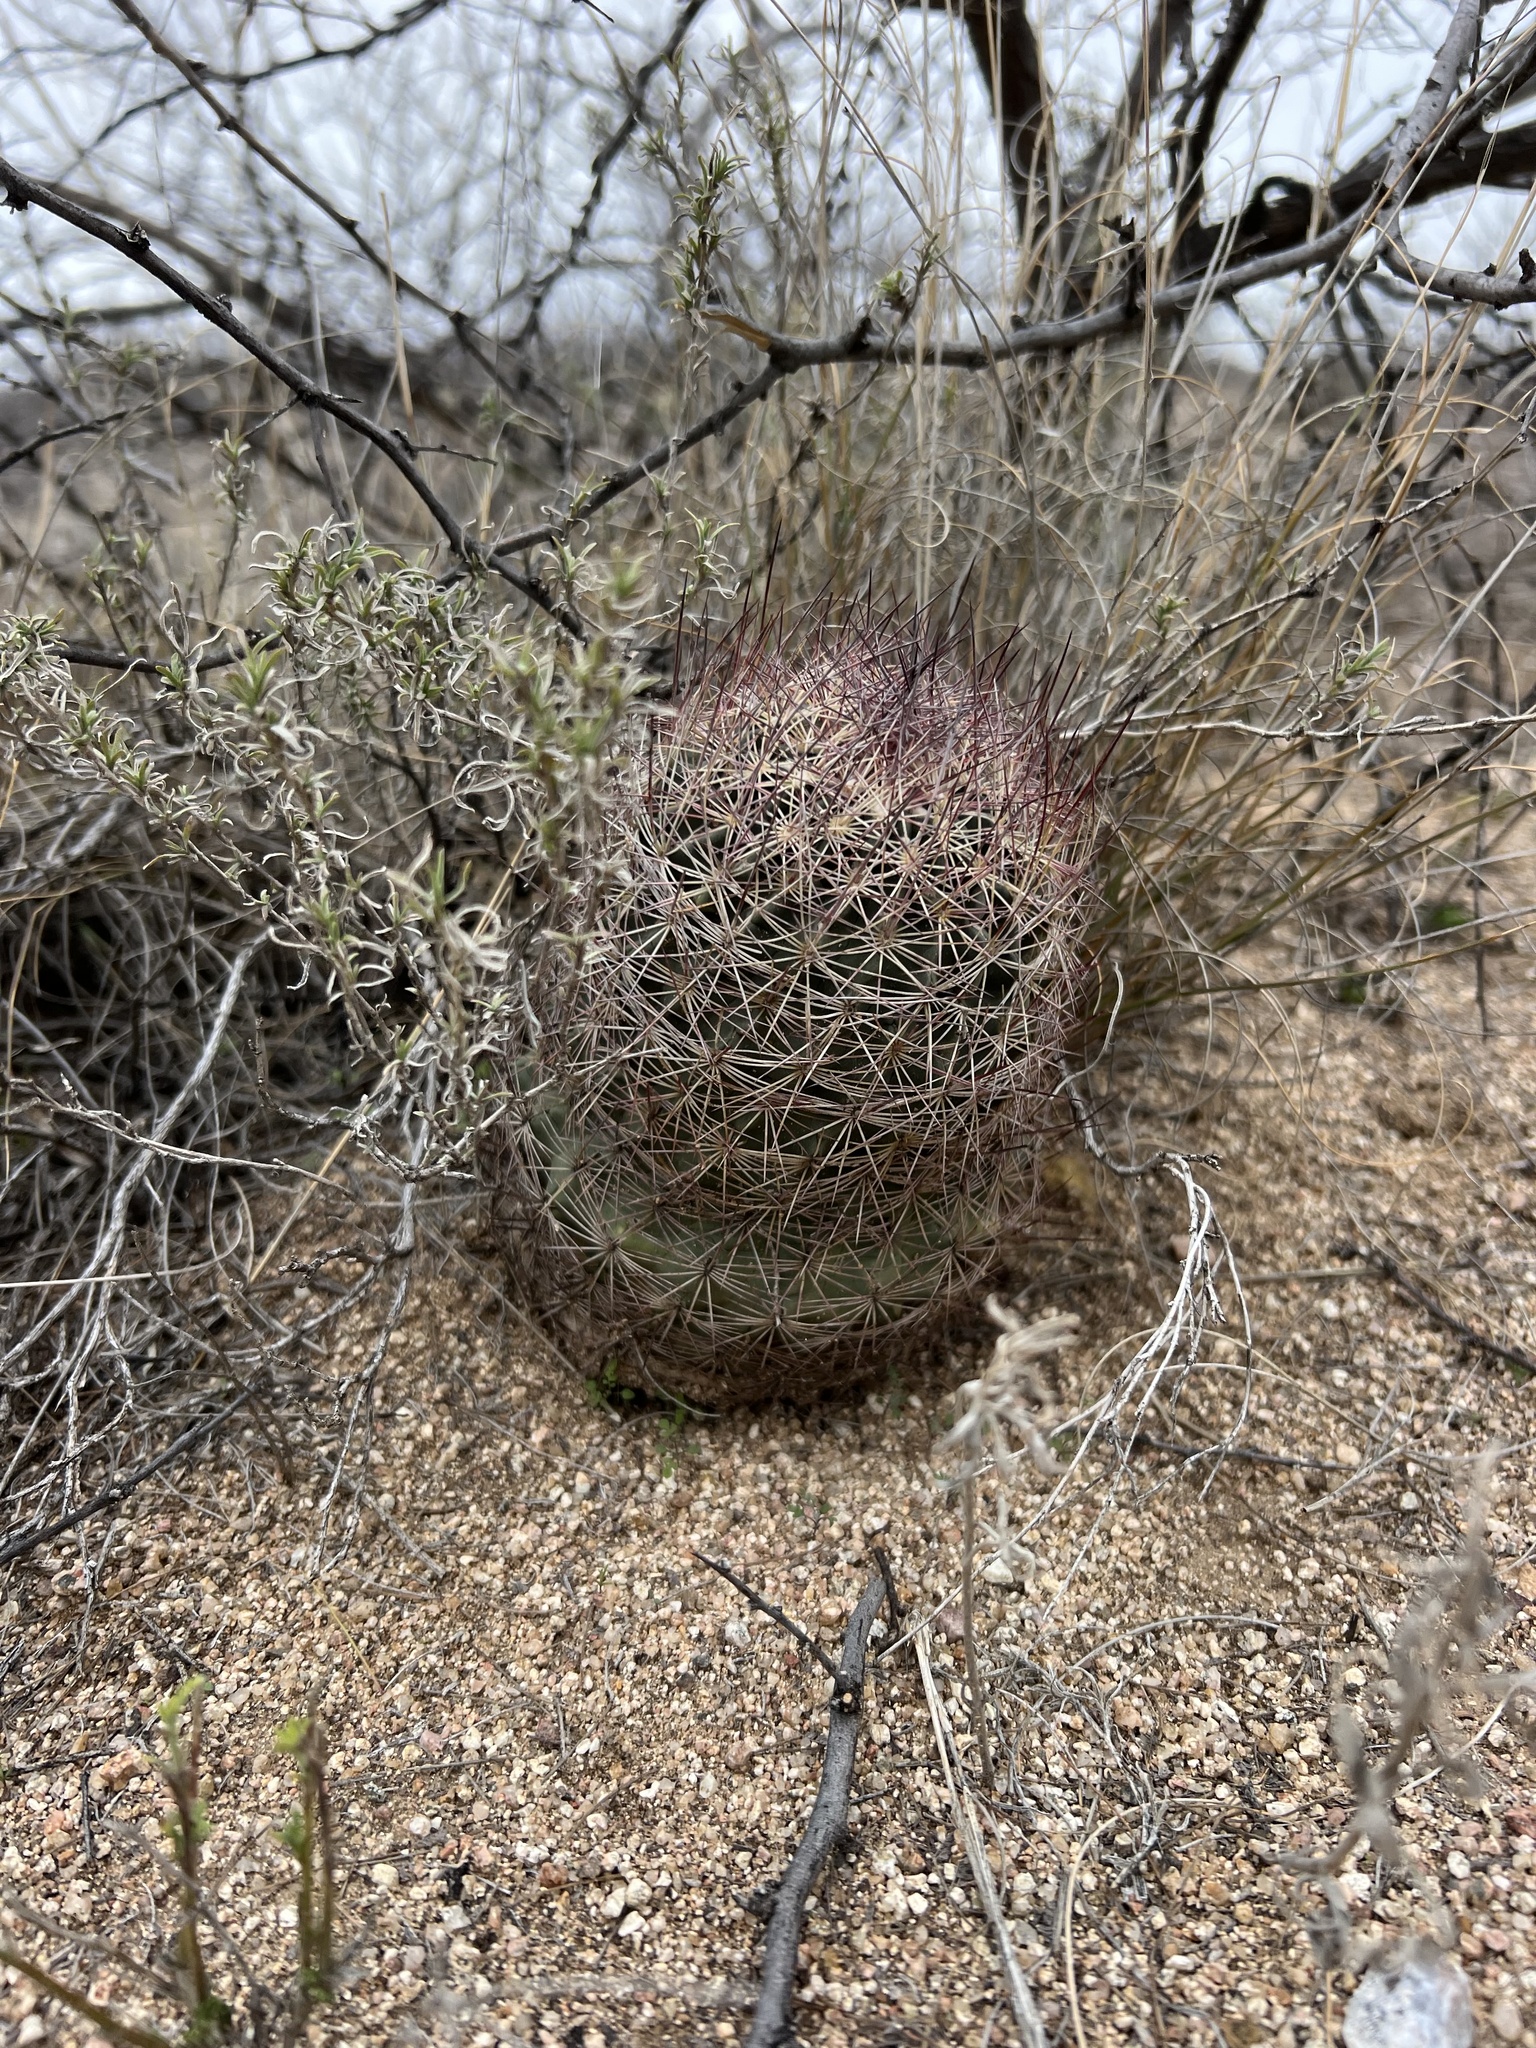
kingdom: Plantae
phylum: Tracheophyta
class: Magnoliopsida
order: Caryophyllales
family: Cactaceae
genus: Sclerocactus
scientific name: Sclerocactus johnsonii
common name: Eight-spine fishhook cactus
